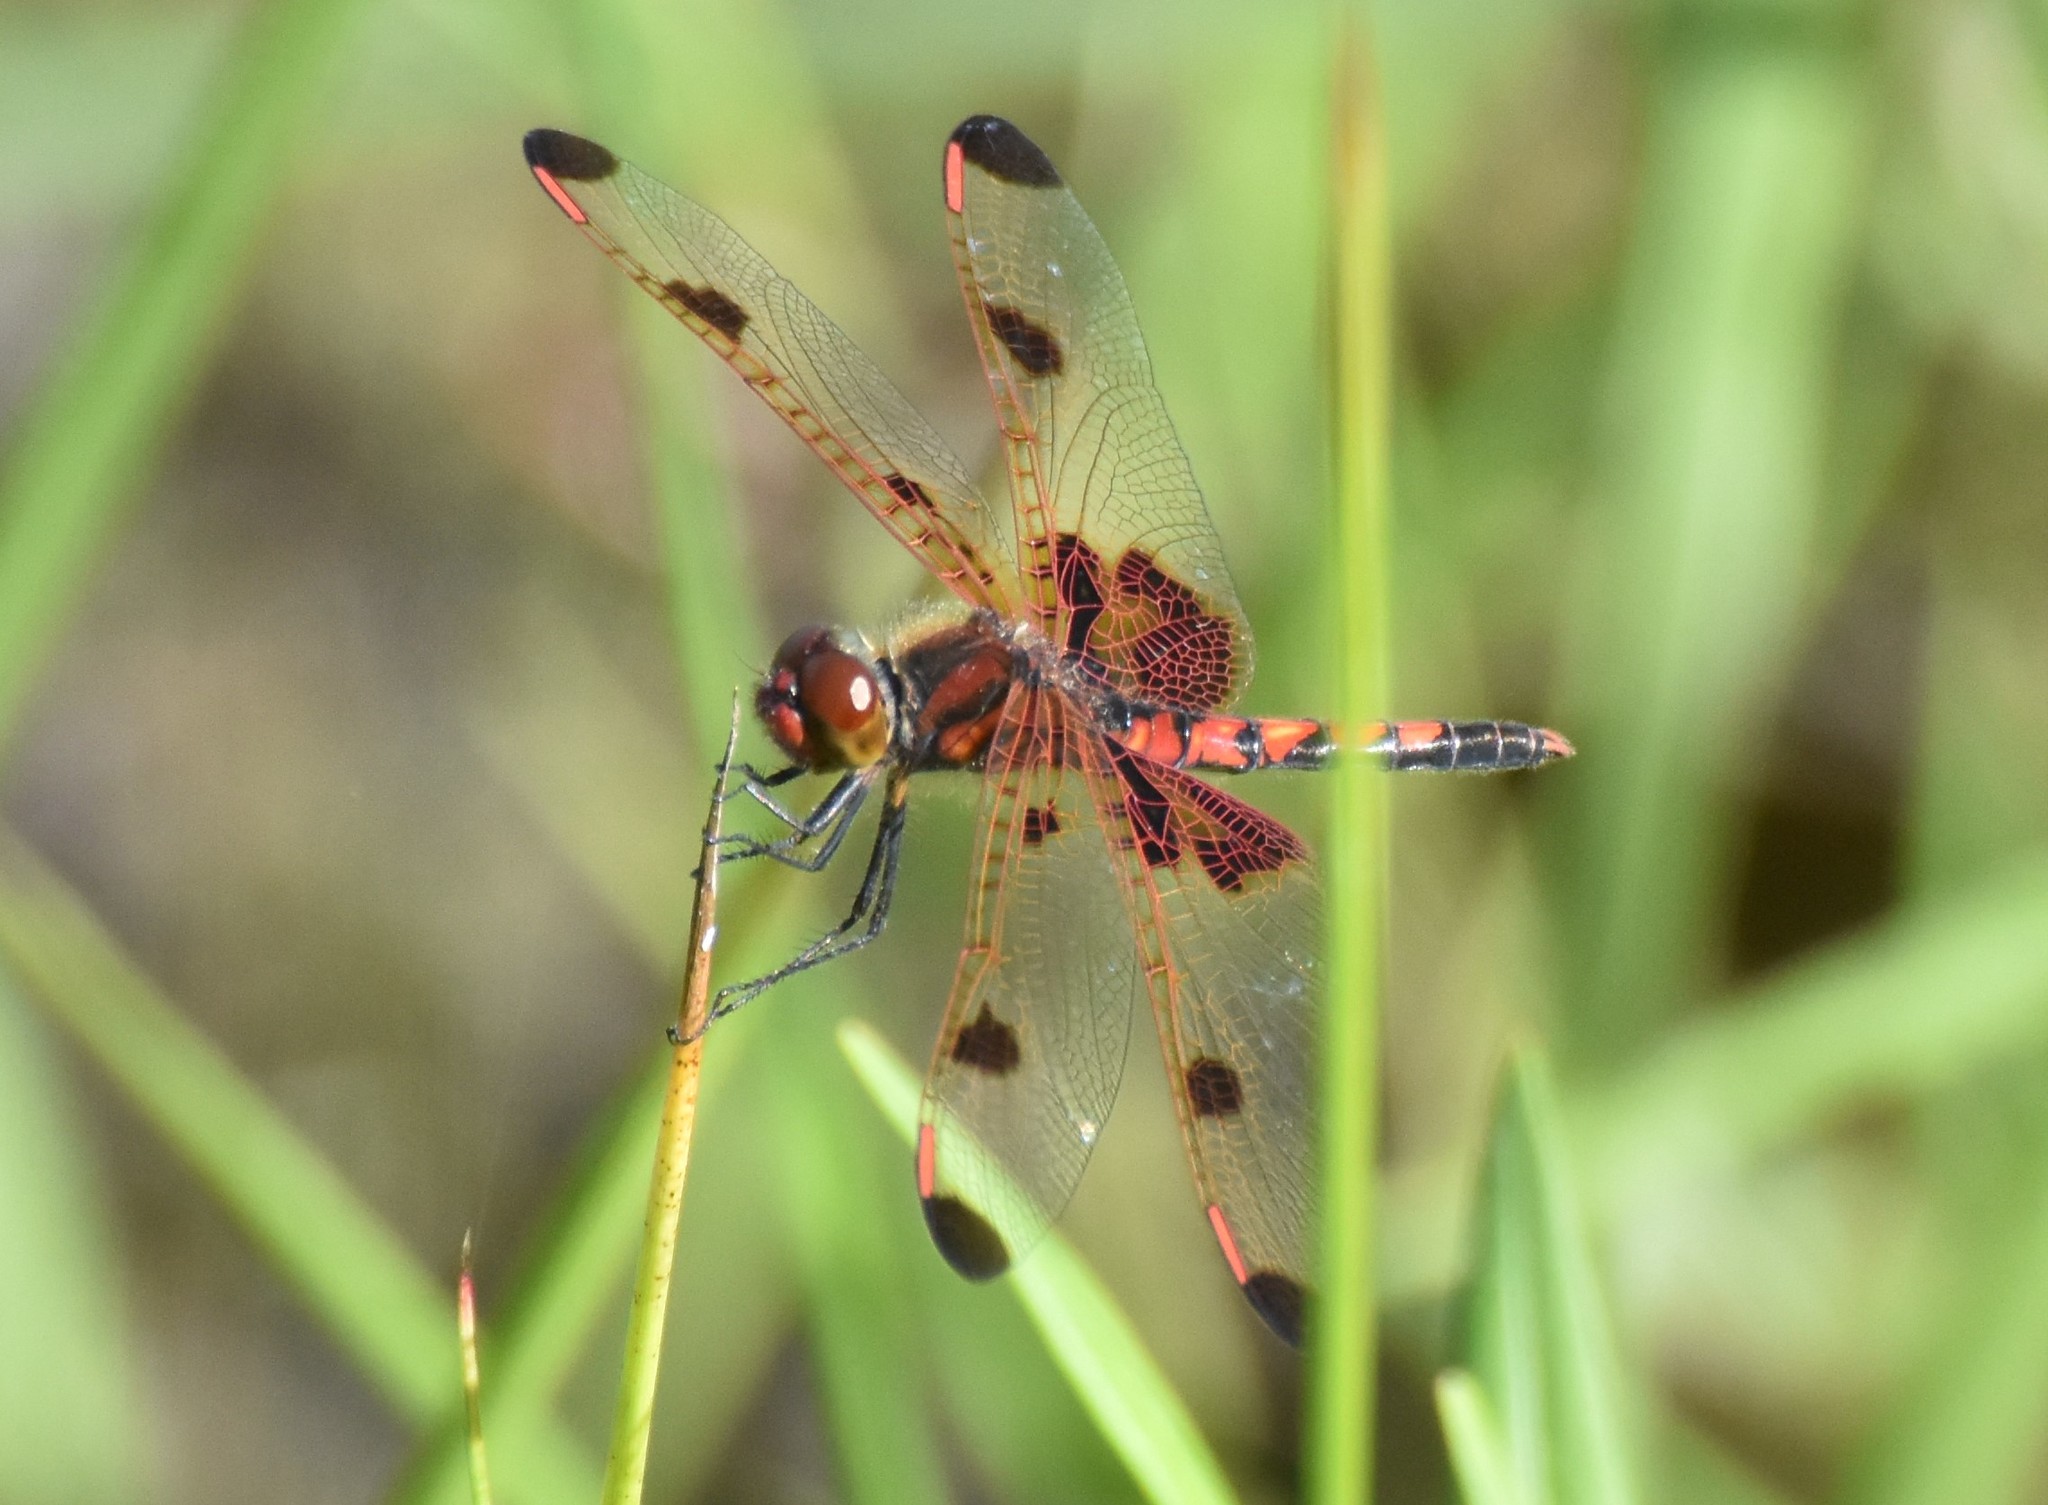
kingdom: Animalia
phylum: Arthropoda
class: Insecta
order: Odonata
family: Libellulidae
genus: Celithemis
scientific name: Celithemis elisa
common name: Calico pennant
